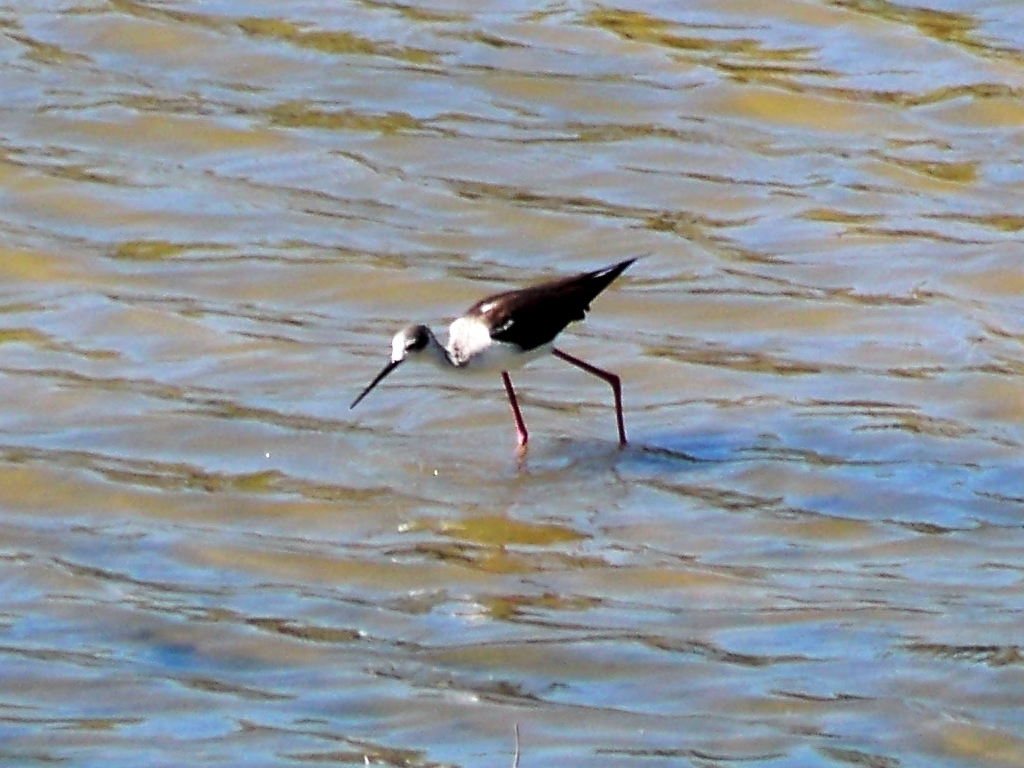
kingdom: Animalia
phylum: Chordata
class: Aves
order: Charadriiformes
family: Recurvirostridae
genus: Himantopus
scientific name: Himantopus himantopus
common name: Black-winged stilt
